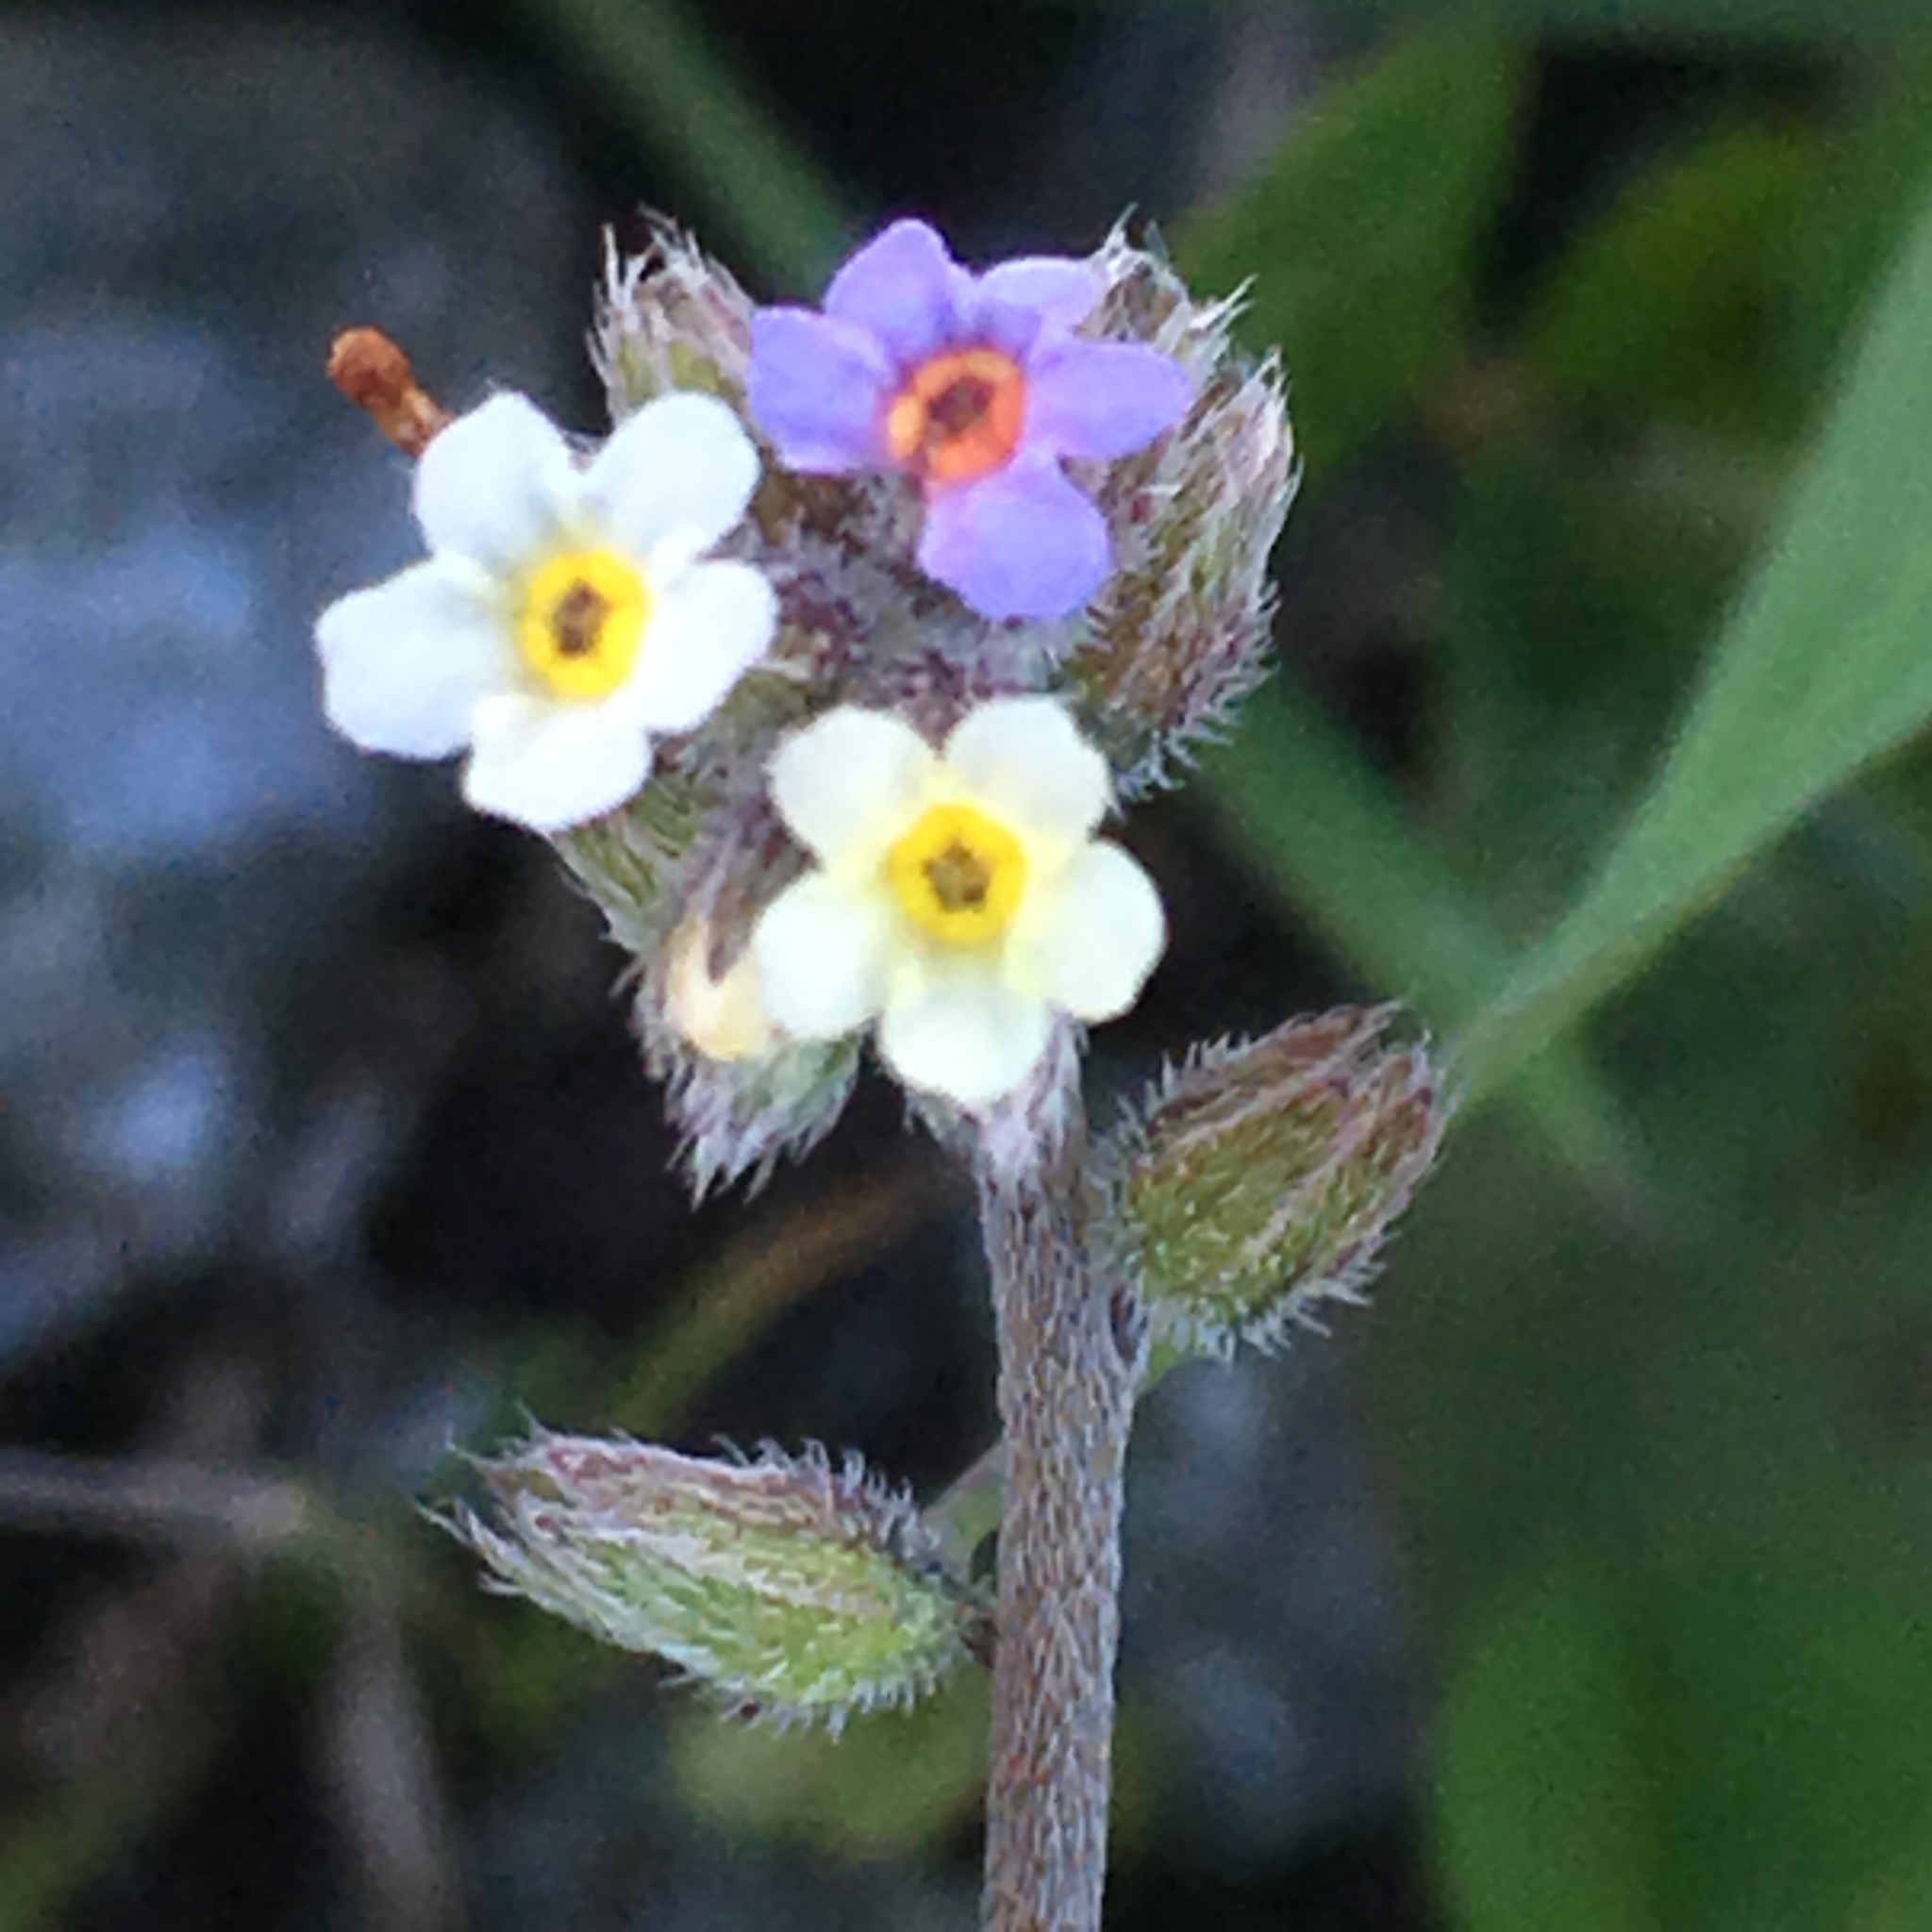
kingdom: Plantae
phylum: Tracheophyta
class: Magnoliopsida
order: Boraginales
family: Boraginaceae
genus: Myosotis
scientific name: Myosotis discolor
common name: Changing forget-me-not
